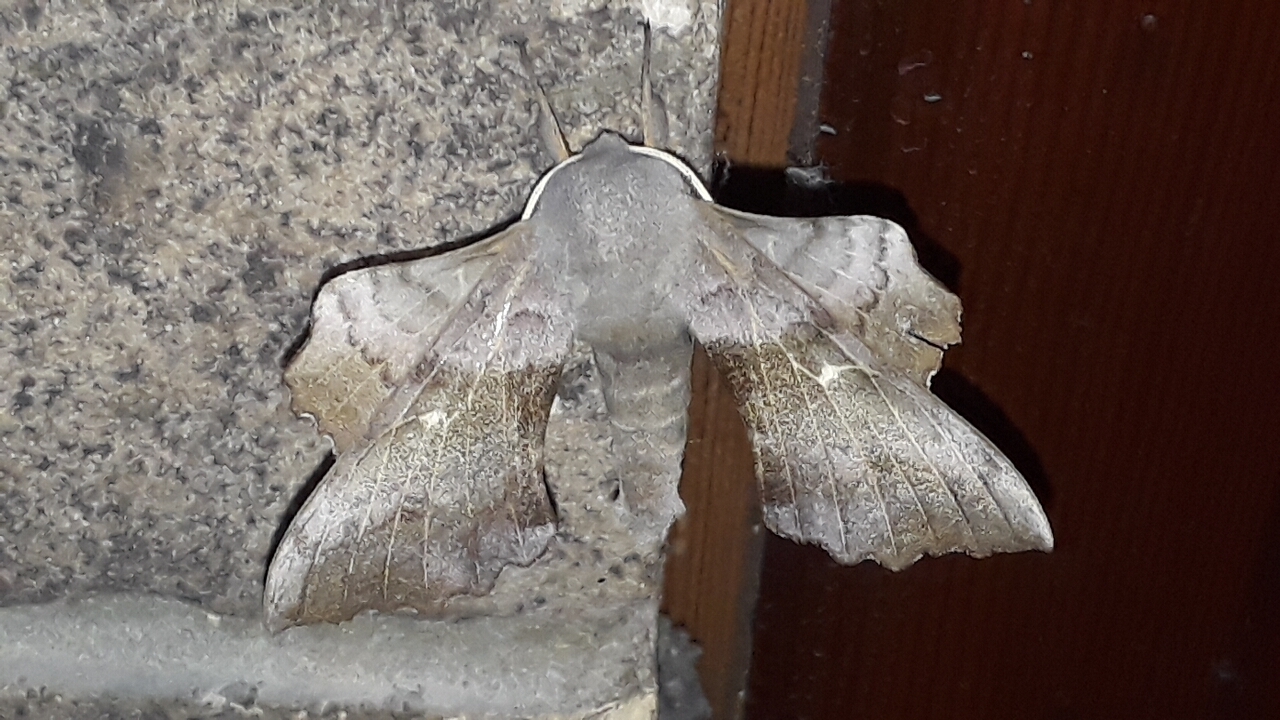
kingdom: Animalia
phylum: Arthropoda
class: Insecta
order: Lepidoptera
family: Sphingidae
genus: Laothoe
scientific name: Laothoe populi
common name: Poplar hawk-moth
